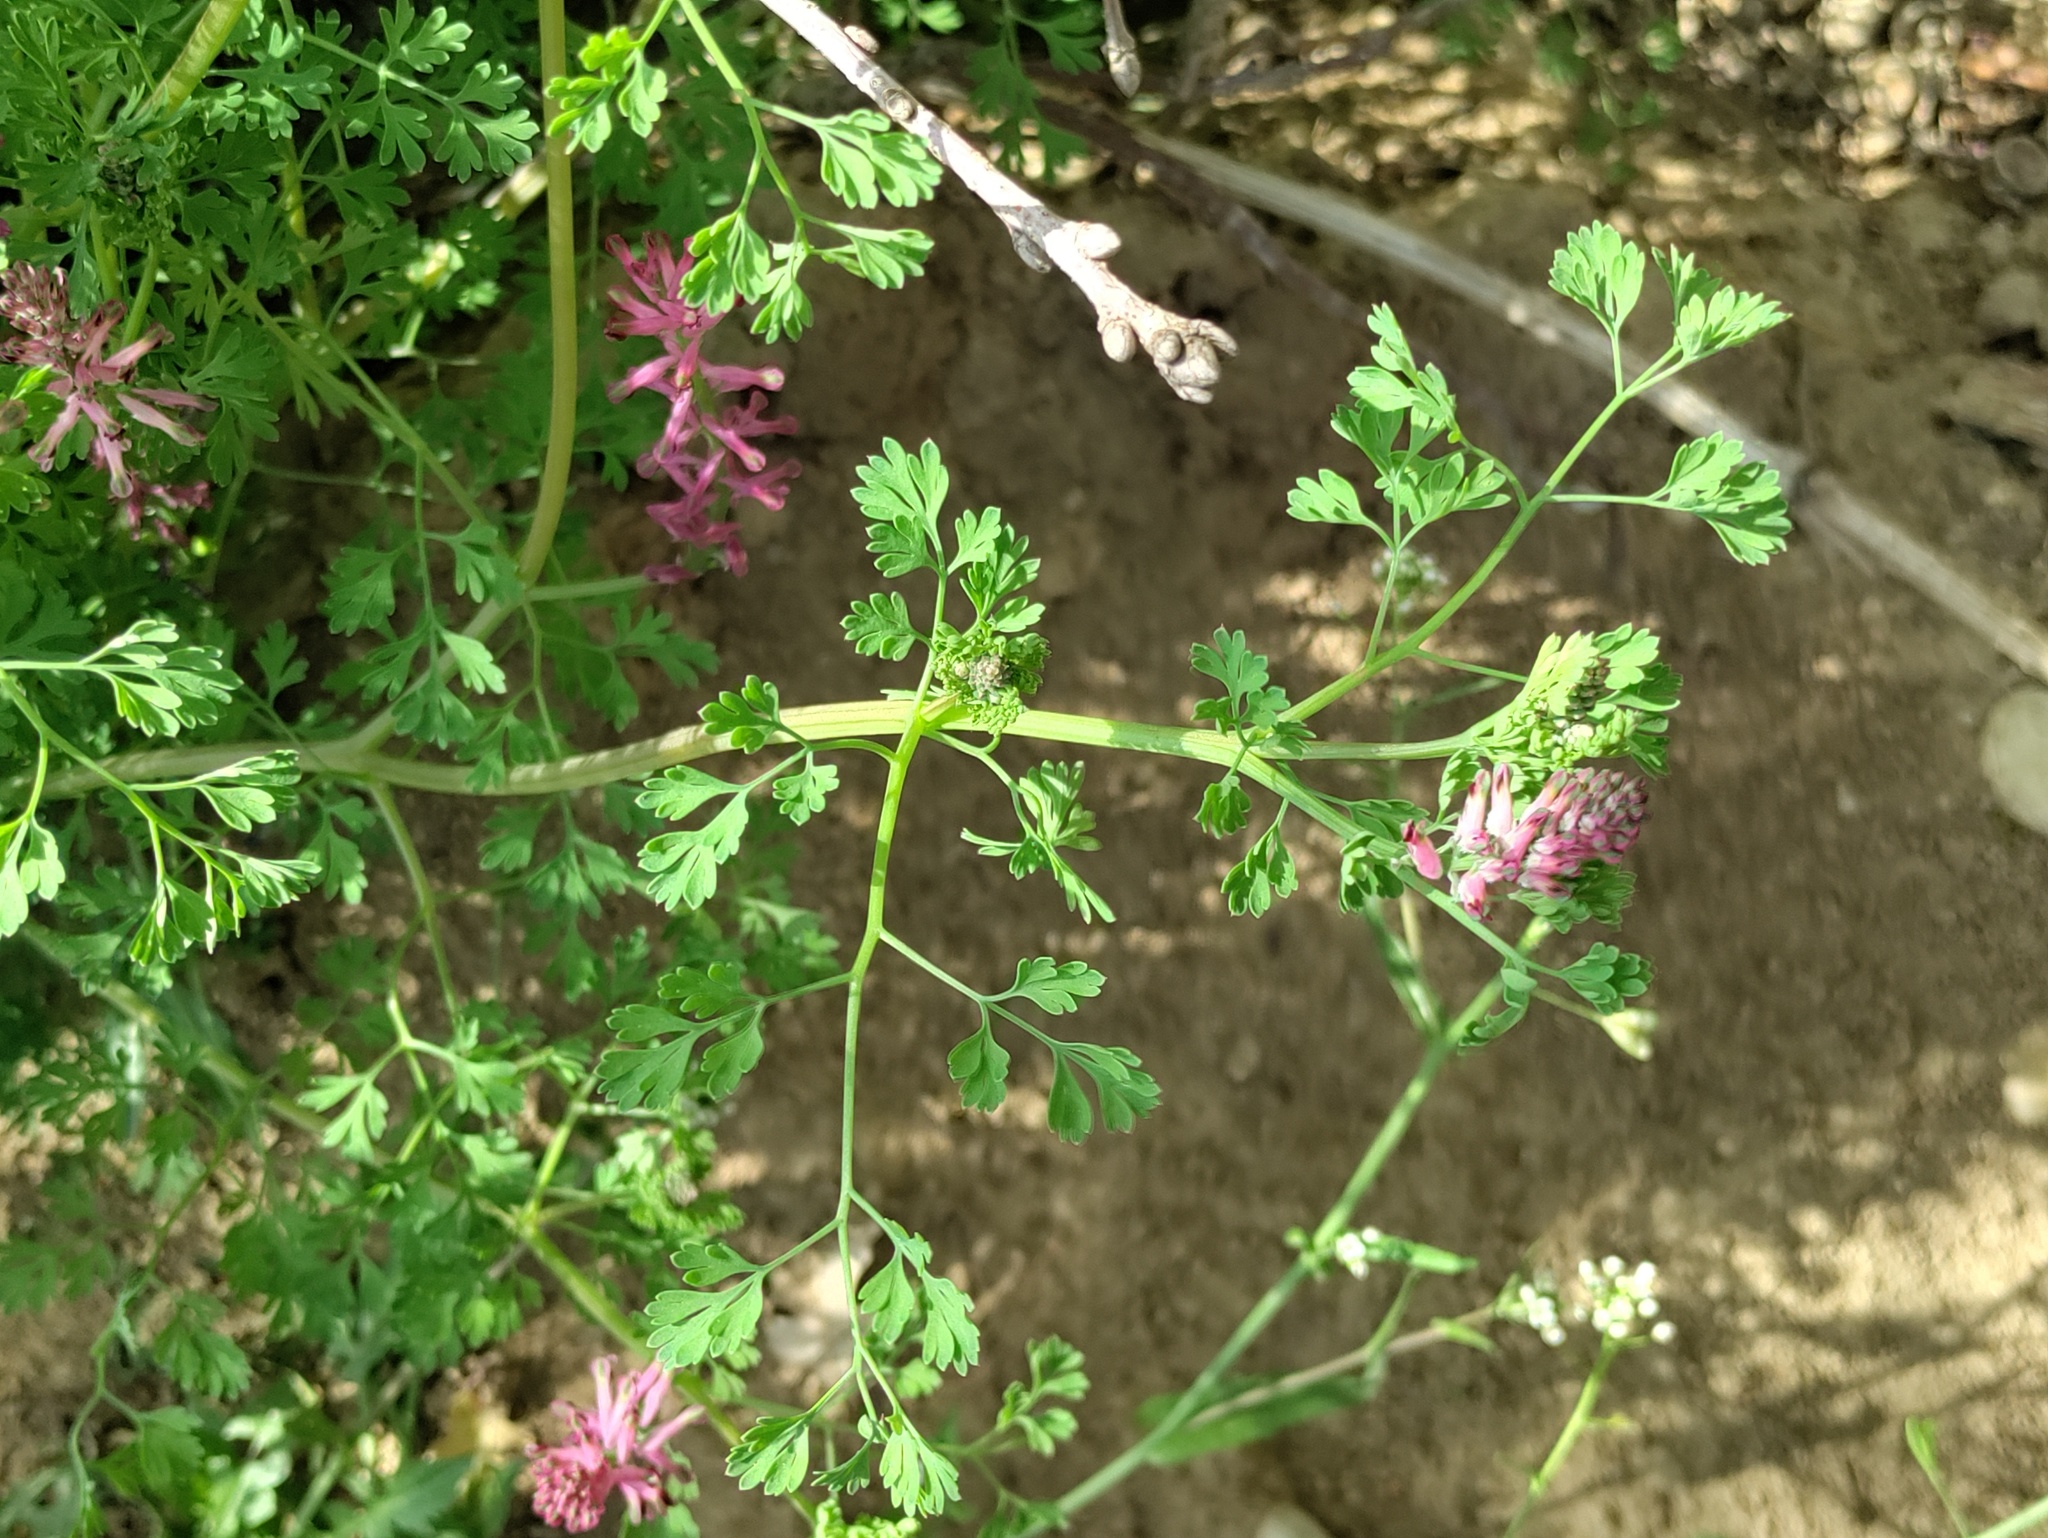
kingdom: Plantae
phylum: Tracheophyta
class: Magnoliopsida
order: Ranunculales
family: Papaveraceae
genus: Fumaria
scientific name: Fumaria officinalis
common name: Common fumitory
